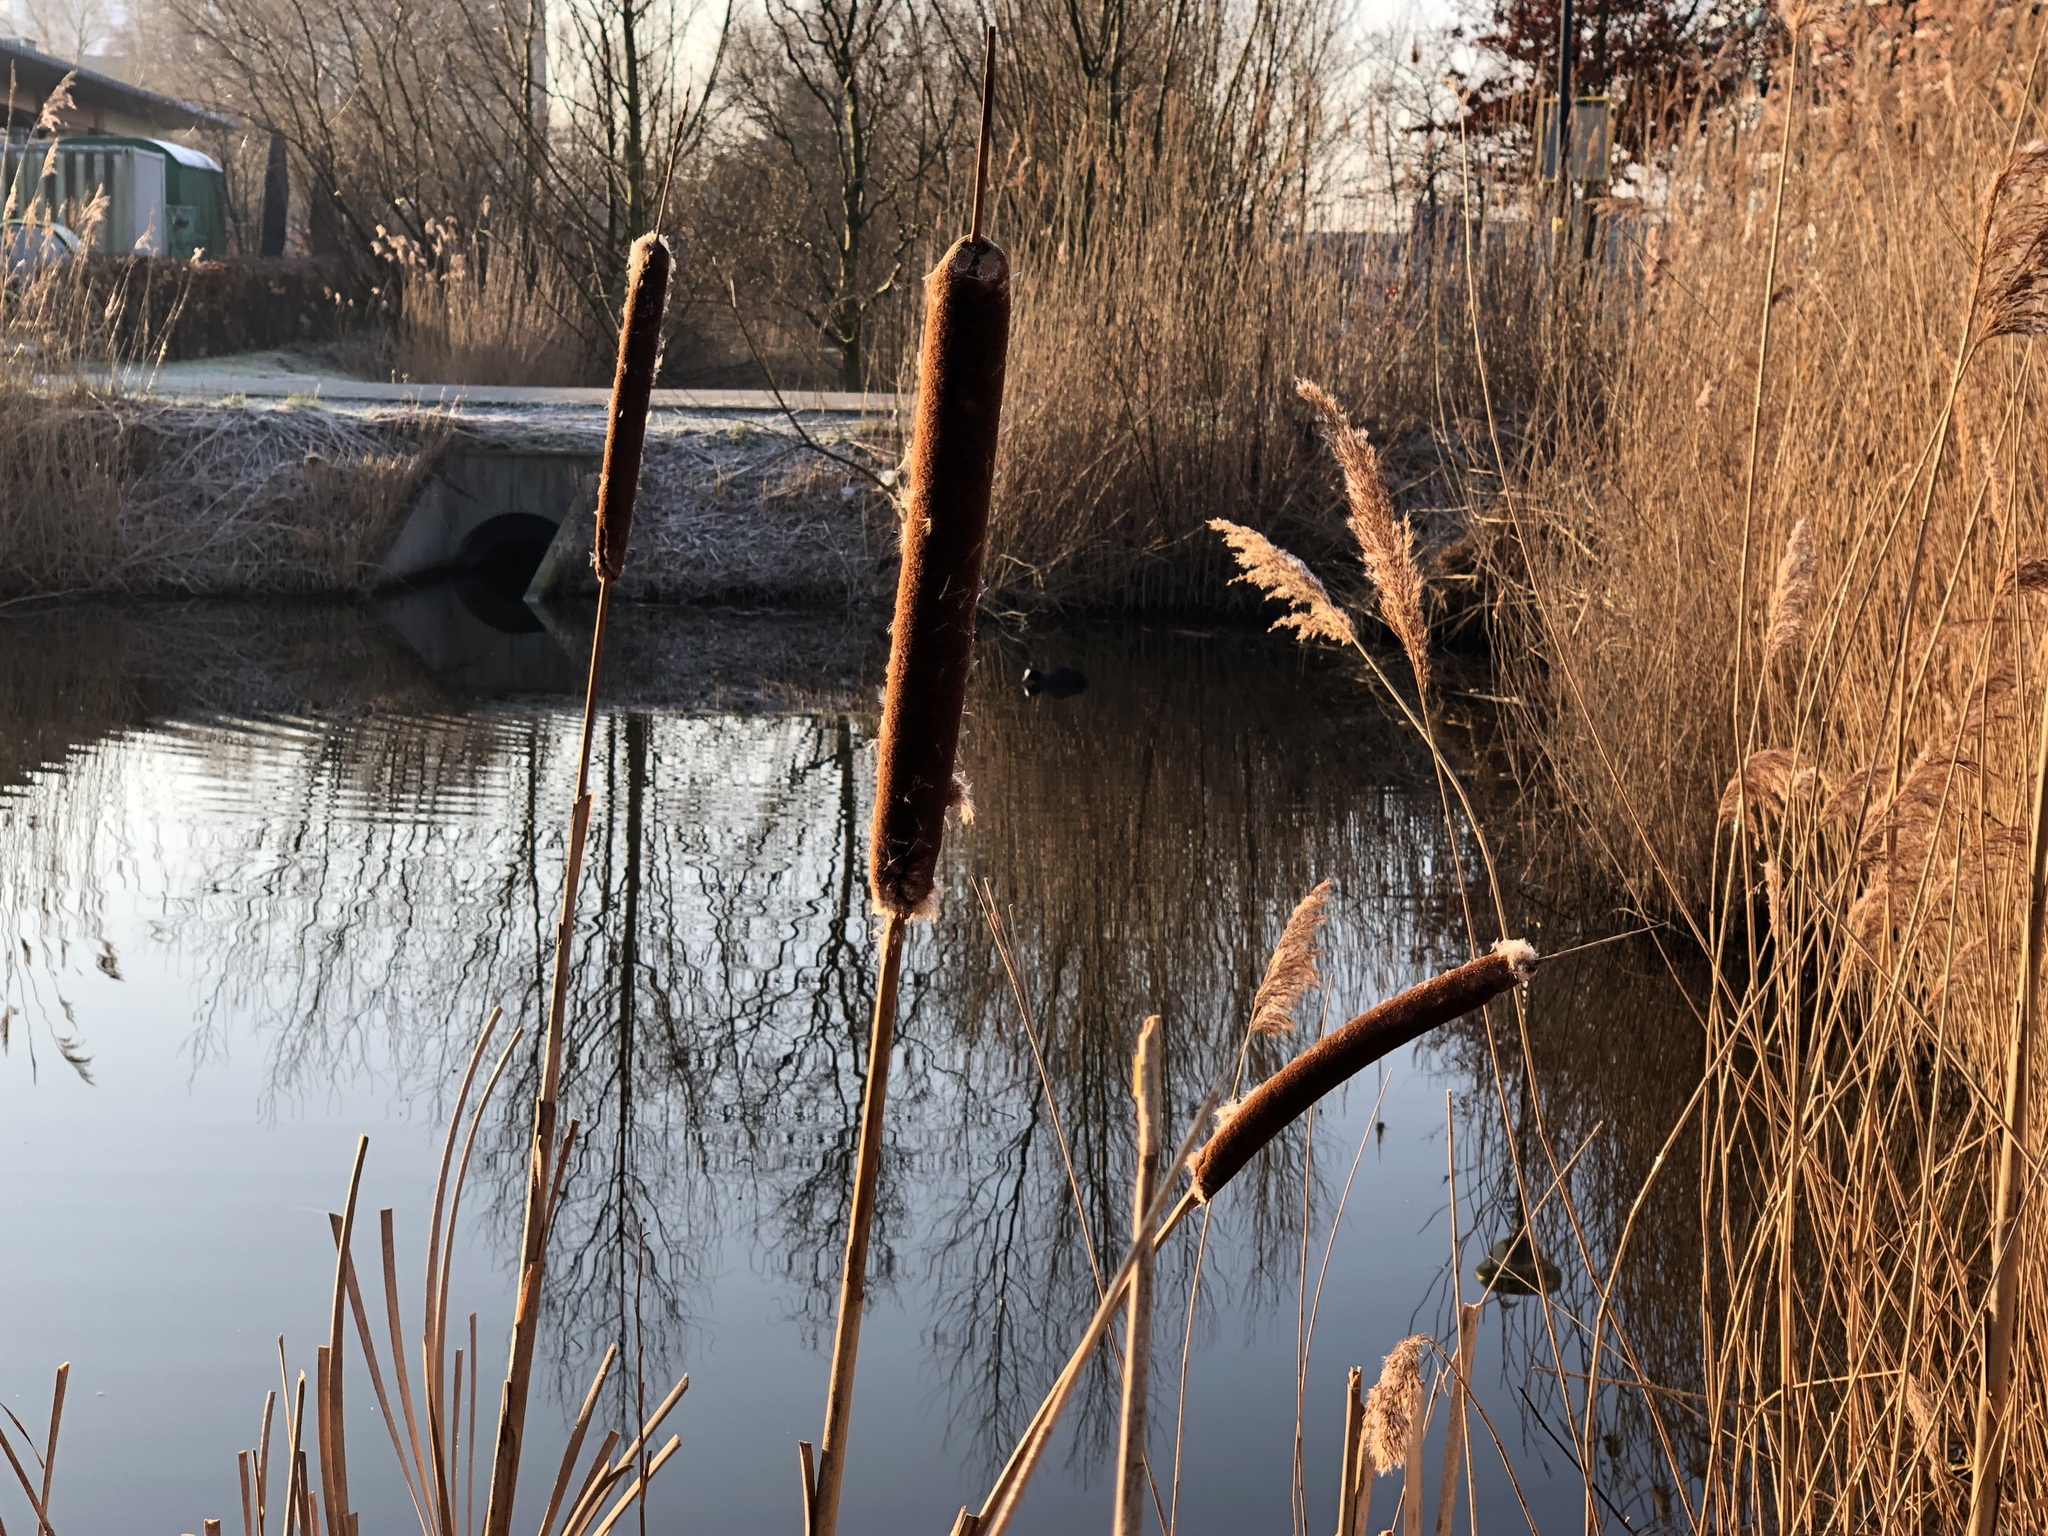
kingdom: Plantae
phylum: Tracheophyta
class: Liliopsida
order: Poales
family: Typhaceae
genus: Typha
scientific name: Typha latifolia
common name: Broadleaf cattail
